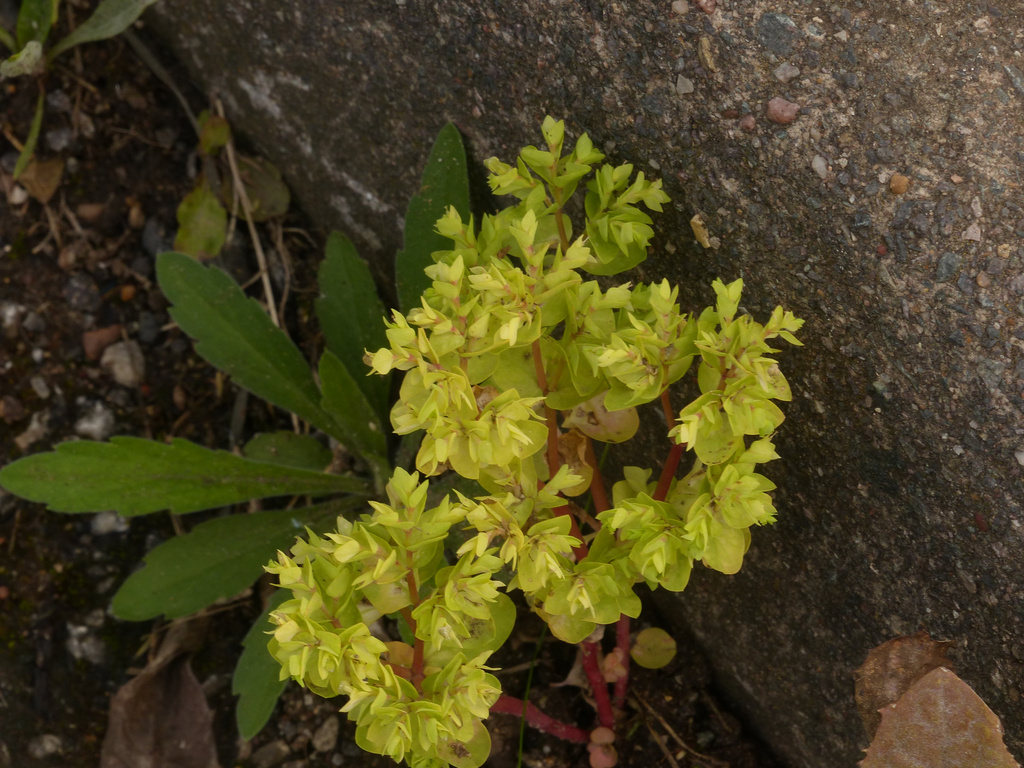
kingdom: Plantae
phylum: Tracheophyta
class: Magnoliopsida
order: Malpighiales
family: Euphorbiaceae
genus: Euphorbia
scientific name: Euphorbia peplus
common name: Petty spurge
